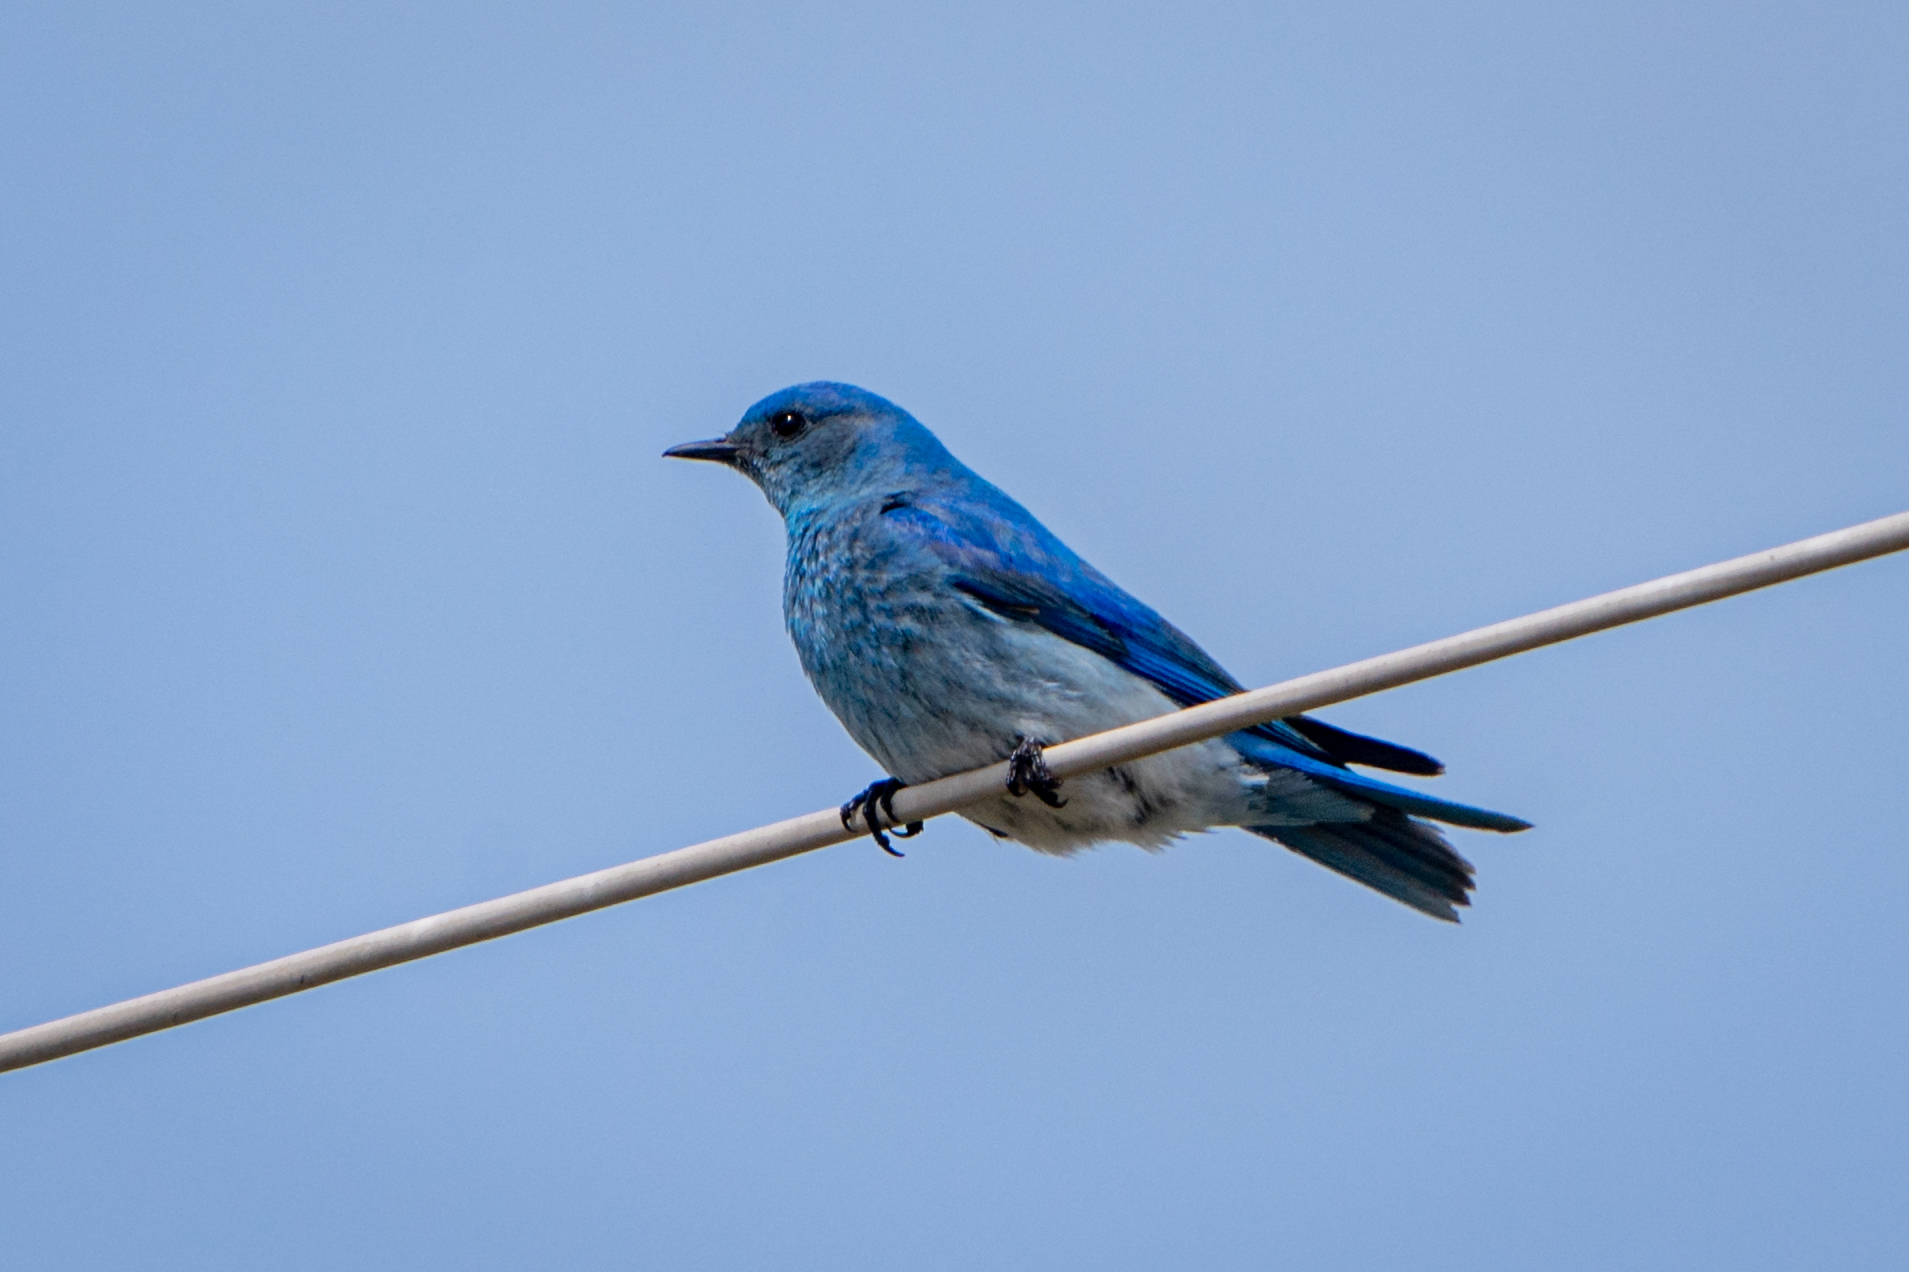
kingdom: Animalia
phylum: Chordata
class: Aves
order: Passeriformes
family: Turdidae
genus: Sialia
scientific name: Sialia currucoides
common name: Mountain bluebird
